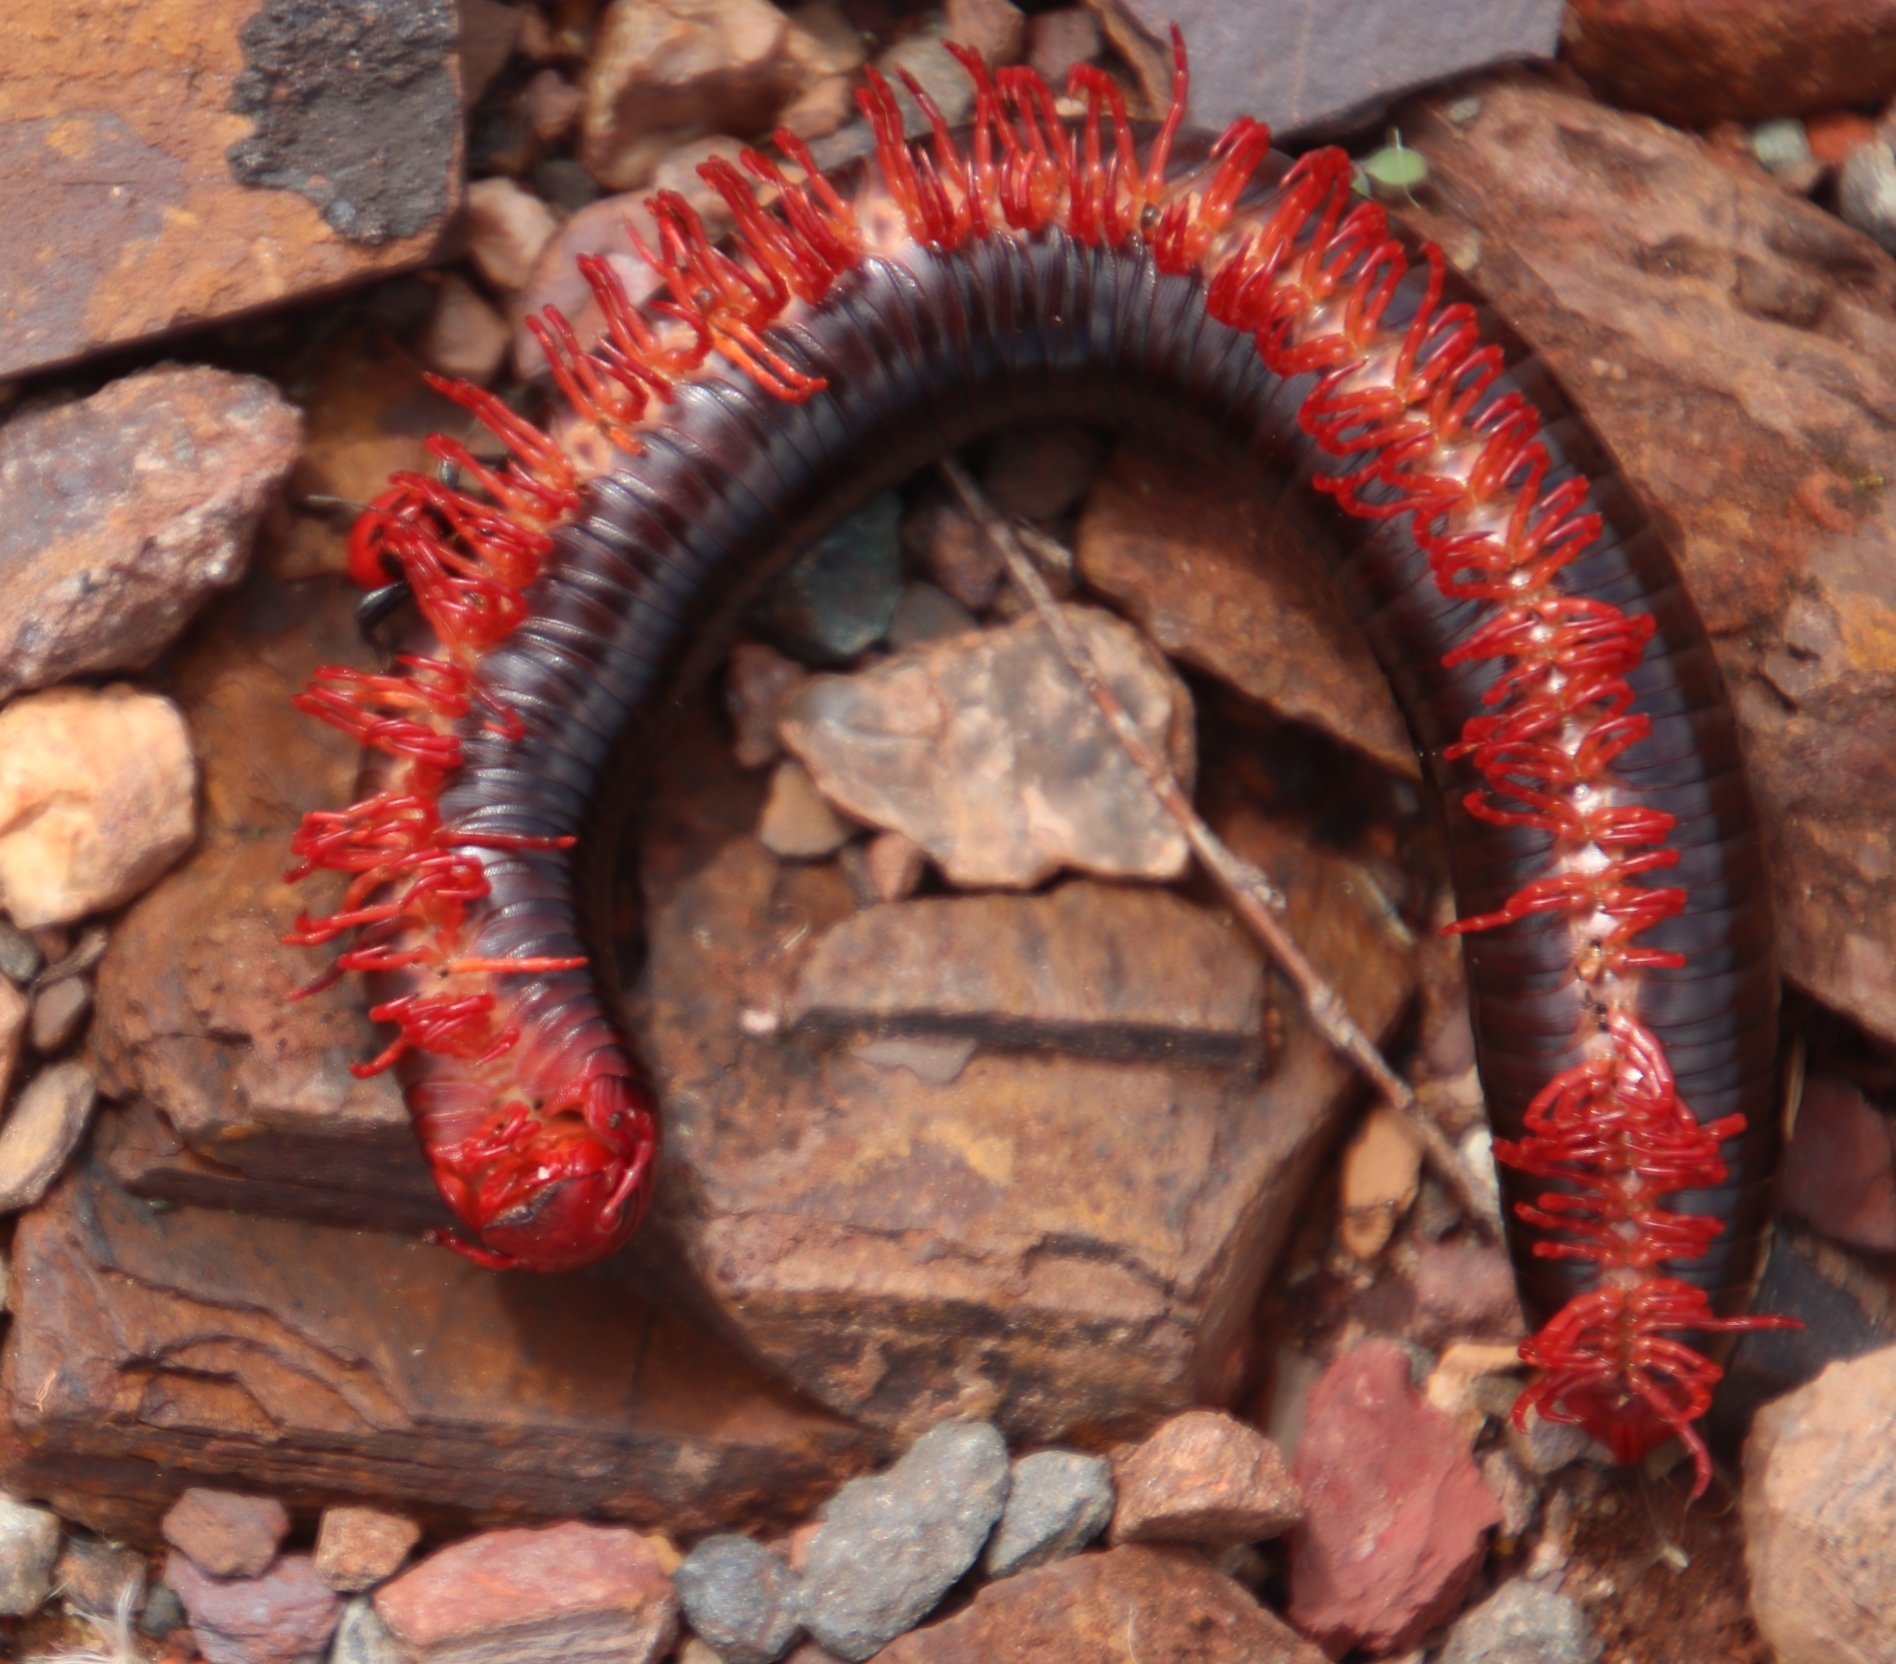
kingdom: Animalia
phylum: Arthropoda
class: Insecta
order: Hemiptera
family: Reduviidae
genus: Ectrichodia
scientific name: Ectrichodia crux
